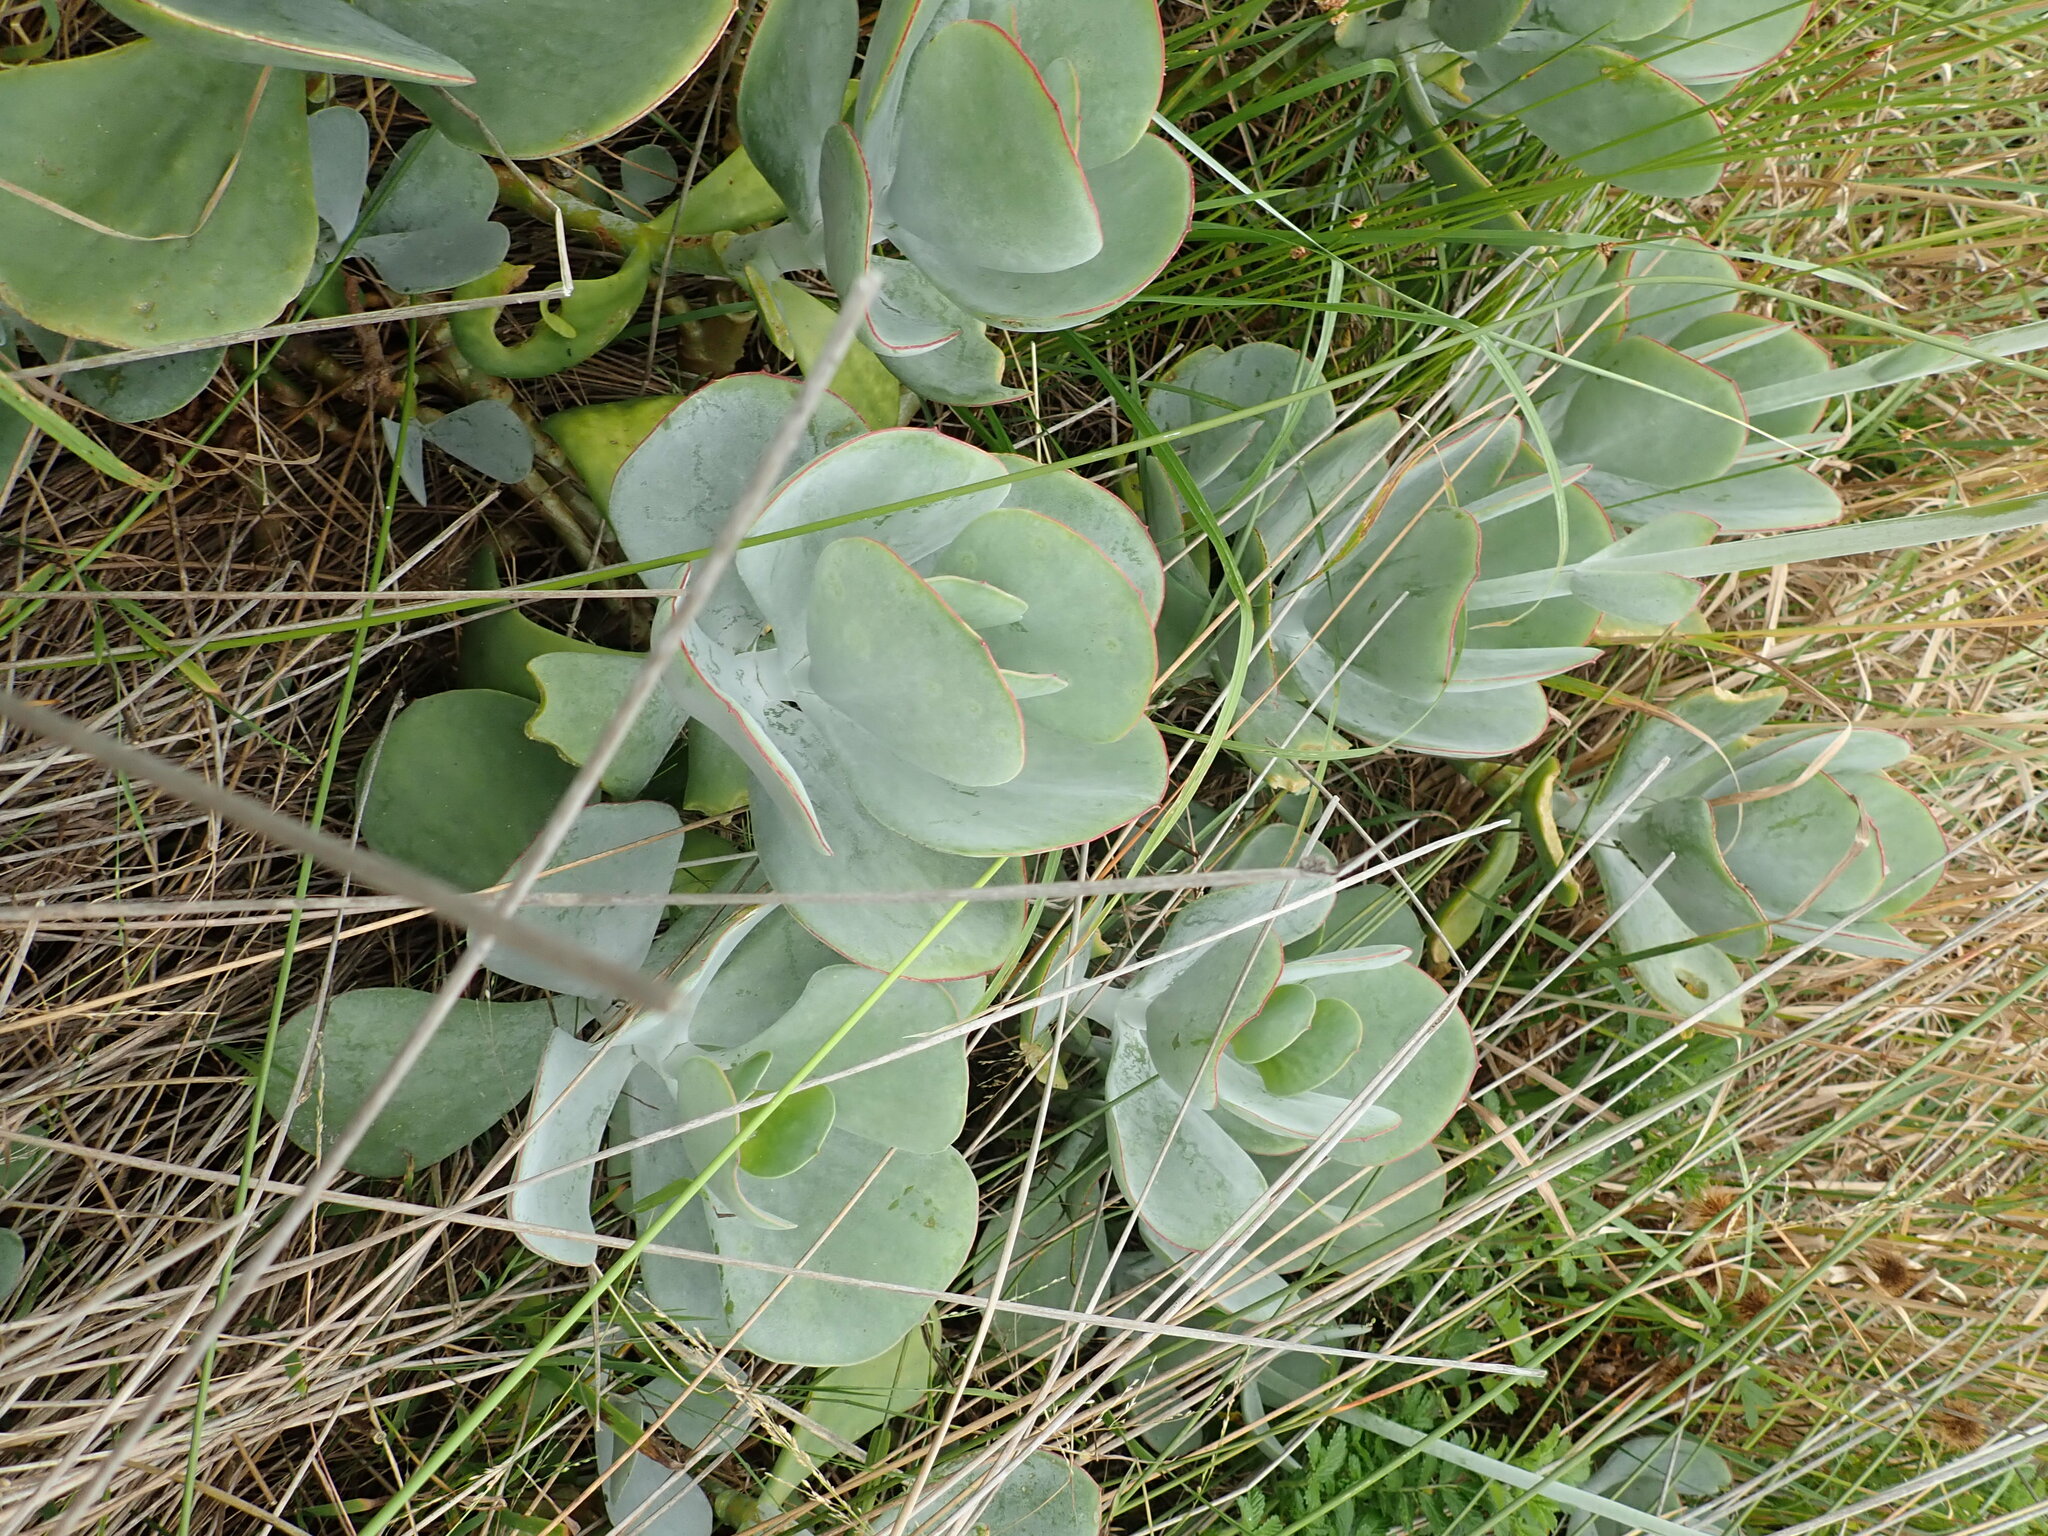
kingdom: Plantae
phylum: Tracheophyta
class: Magnoliopsida
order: Saxifragales
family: Crassulaceae
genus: Cotyledon
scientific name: Cotyledon orbiculata
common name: Pig's ear
